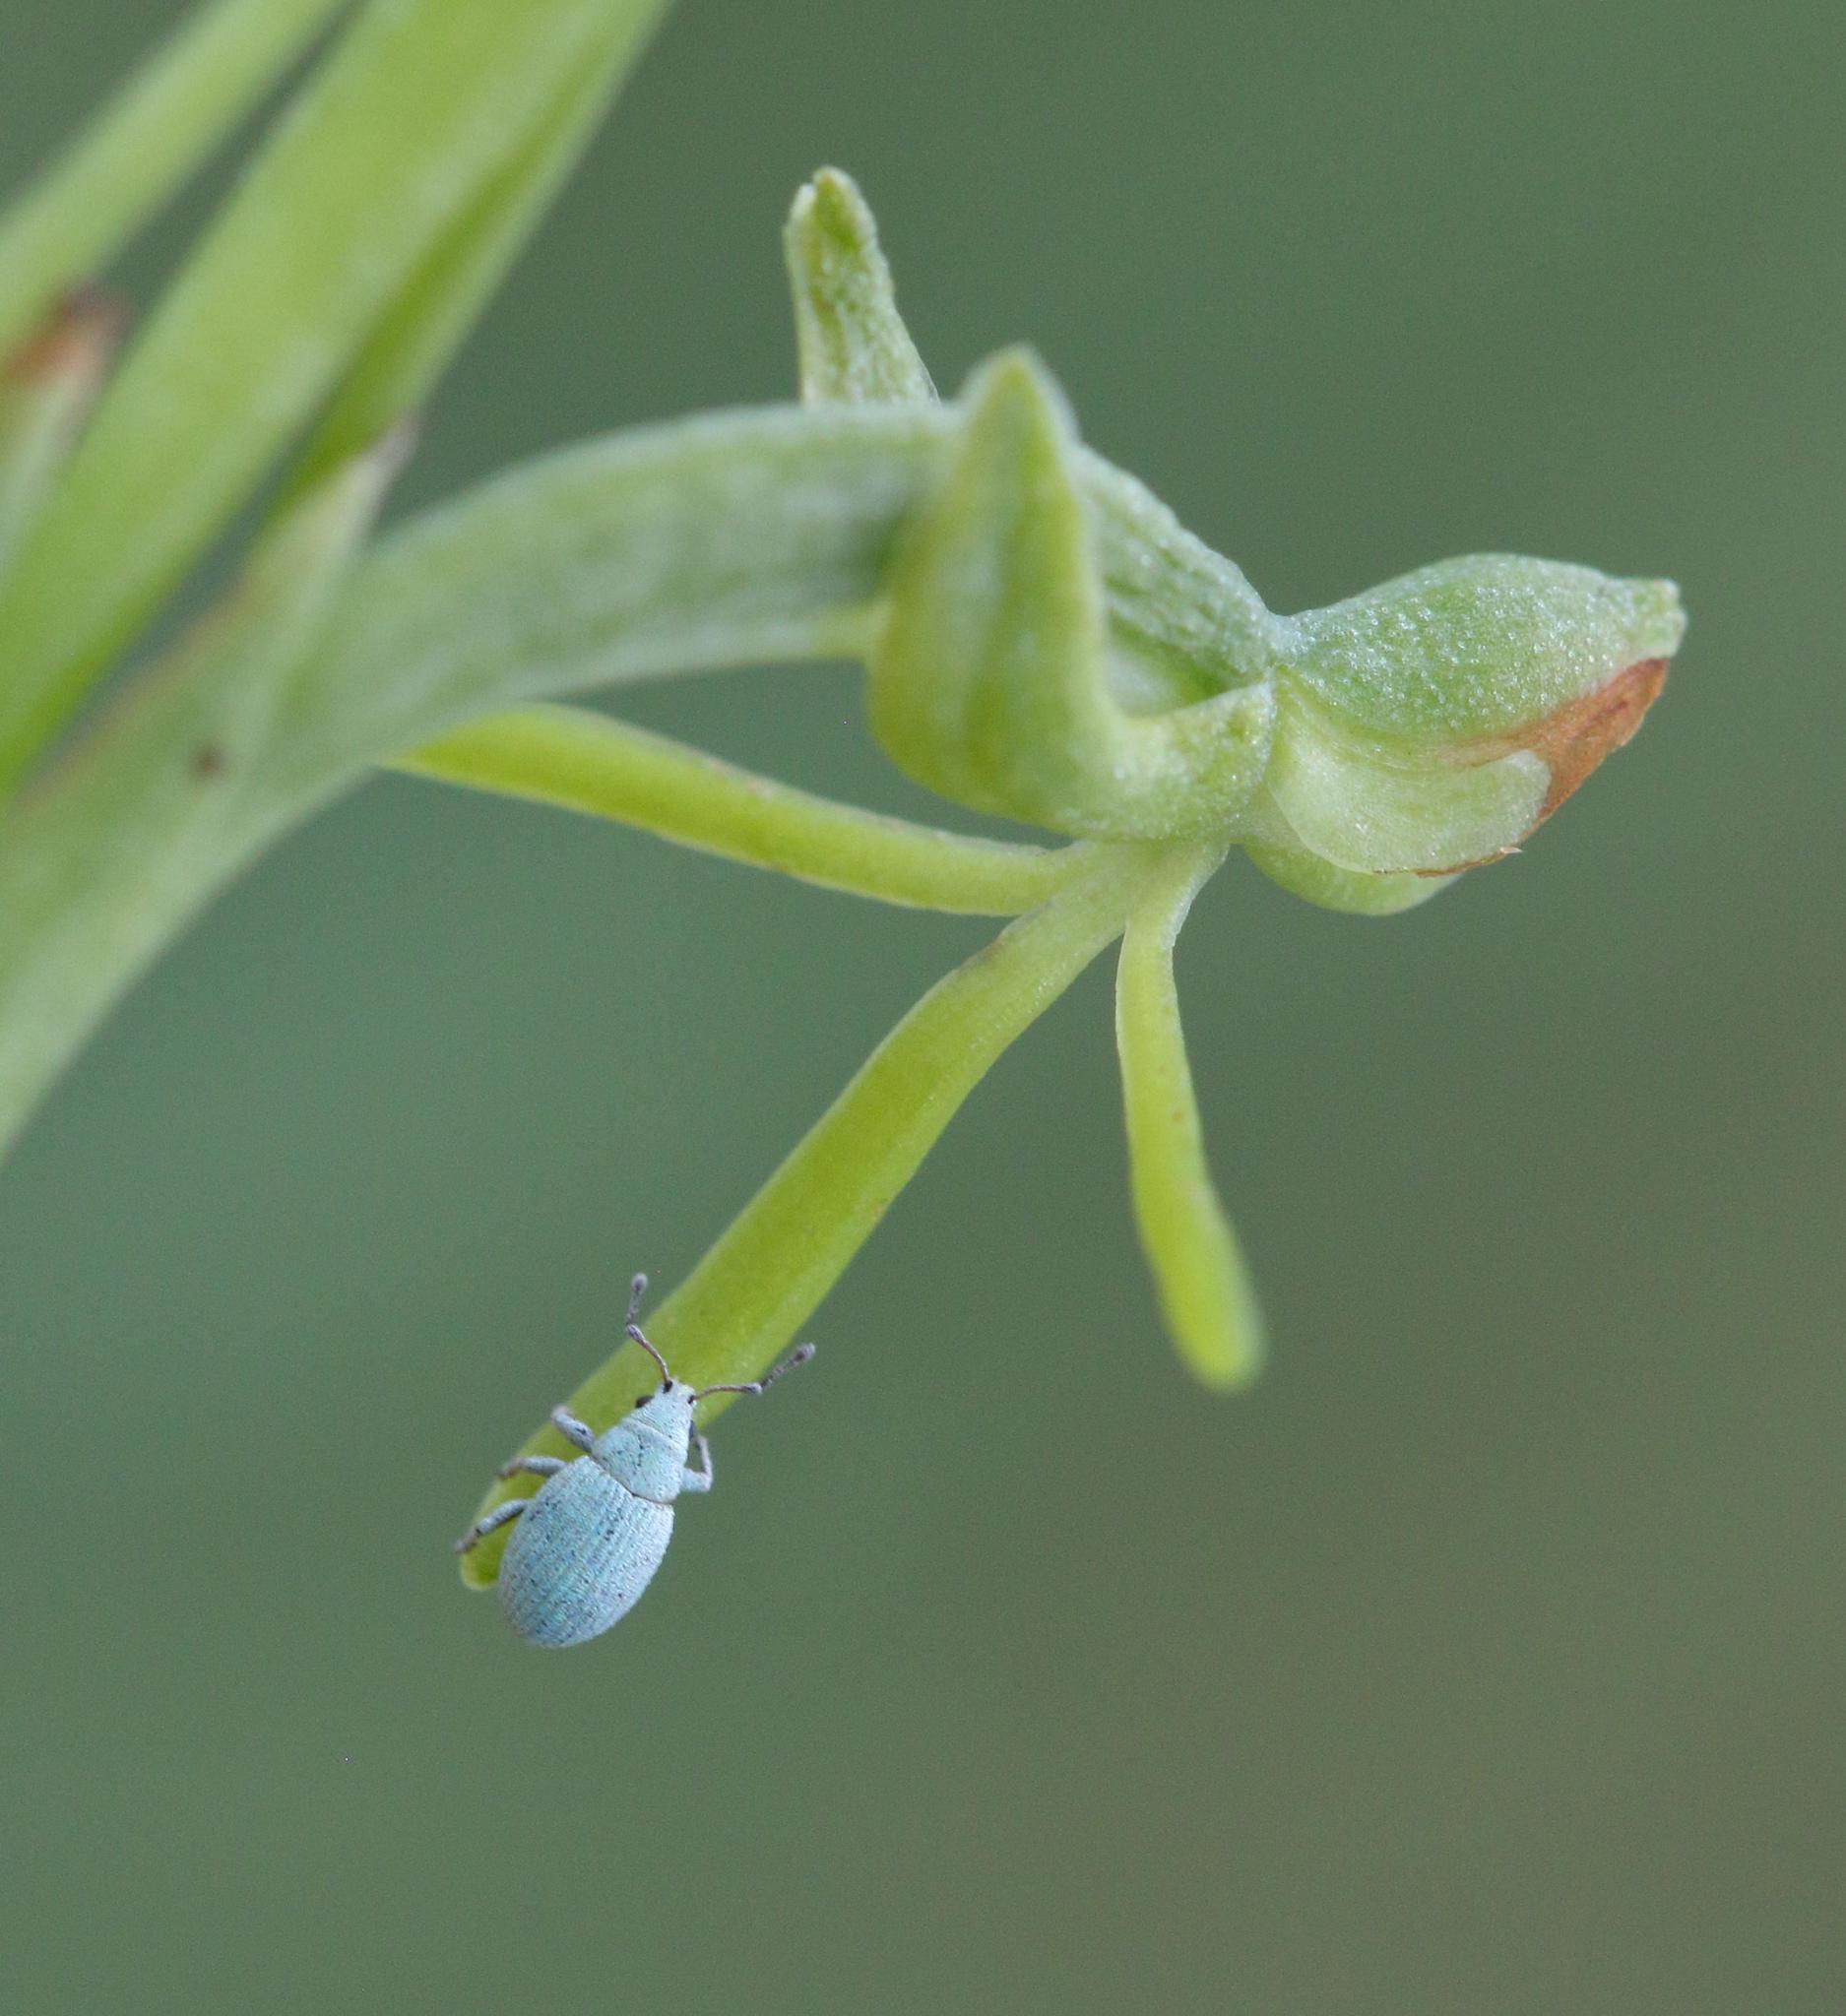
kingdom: Plantae
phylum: Tracheophyta
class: Liliopsida
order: Asparagales
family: Orchidaceae
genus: Habenaria
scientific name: Habenaria filicornis
